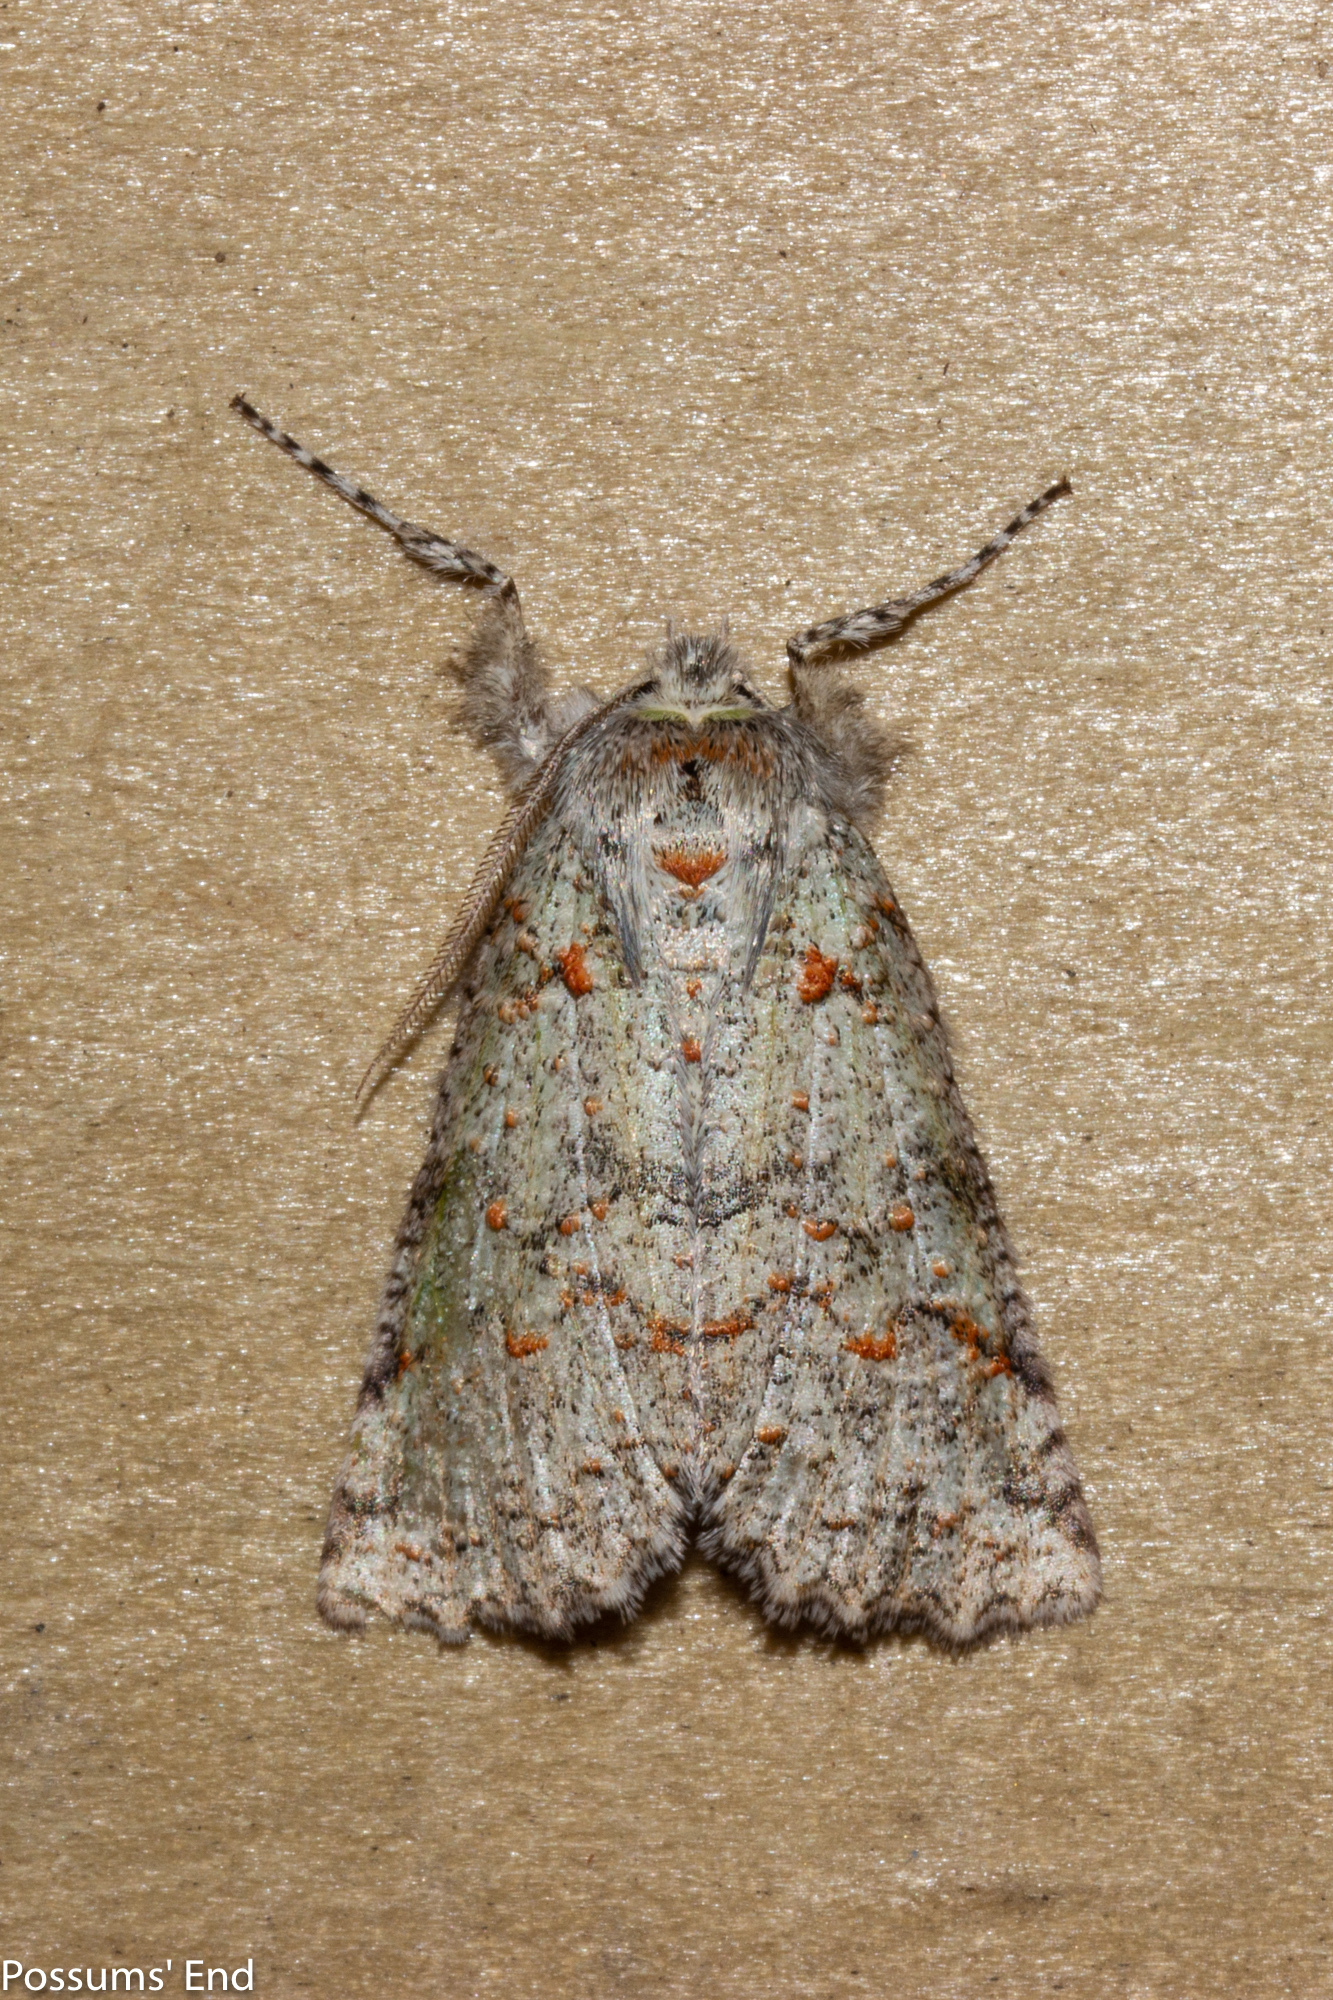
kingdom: Animalia
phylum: Arthropoda
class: Insecta
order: Lepidoptera
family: Geometridae
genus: Declana
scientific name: Declana floccosa
